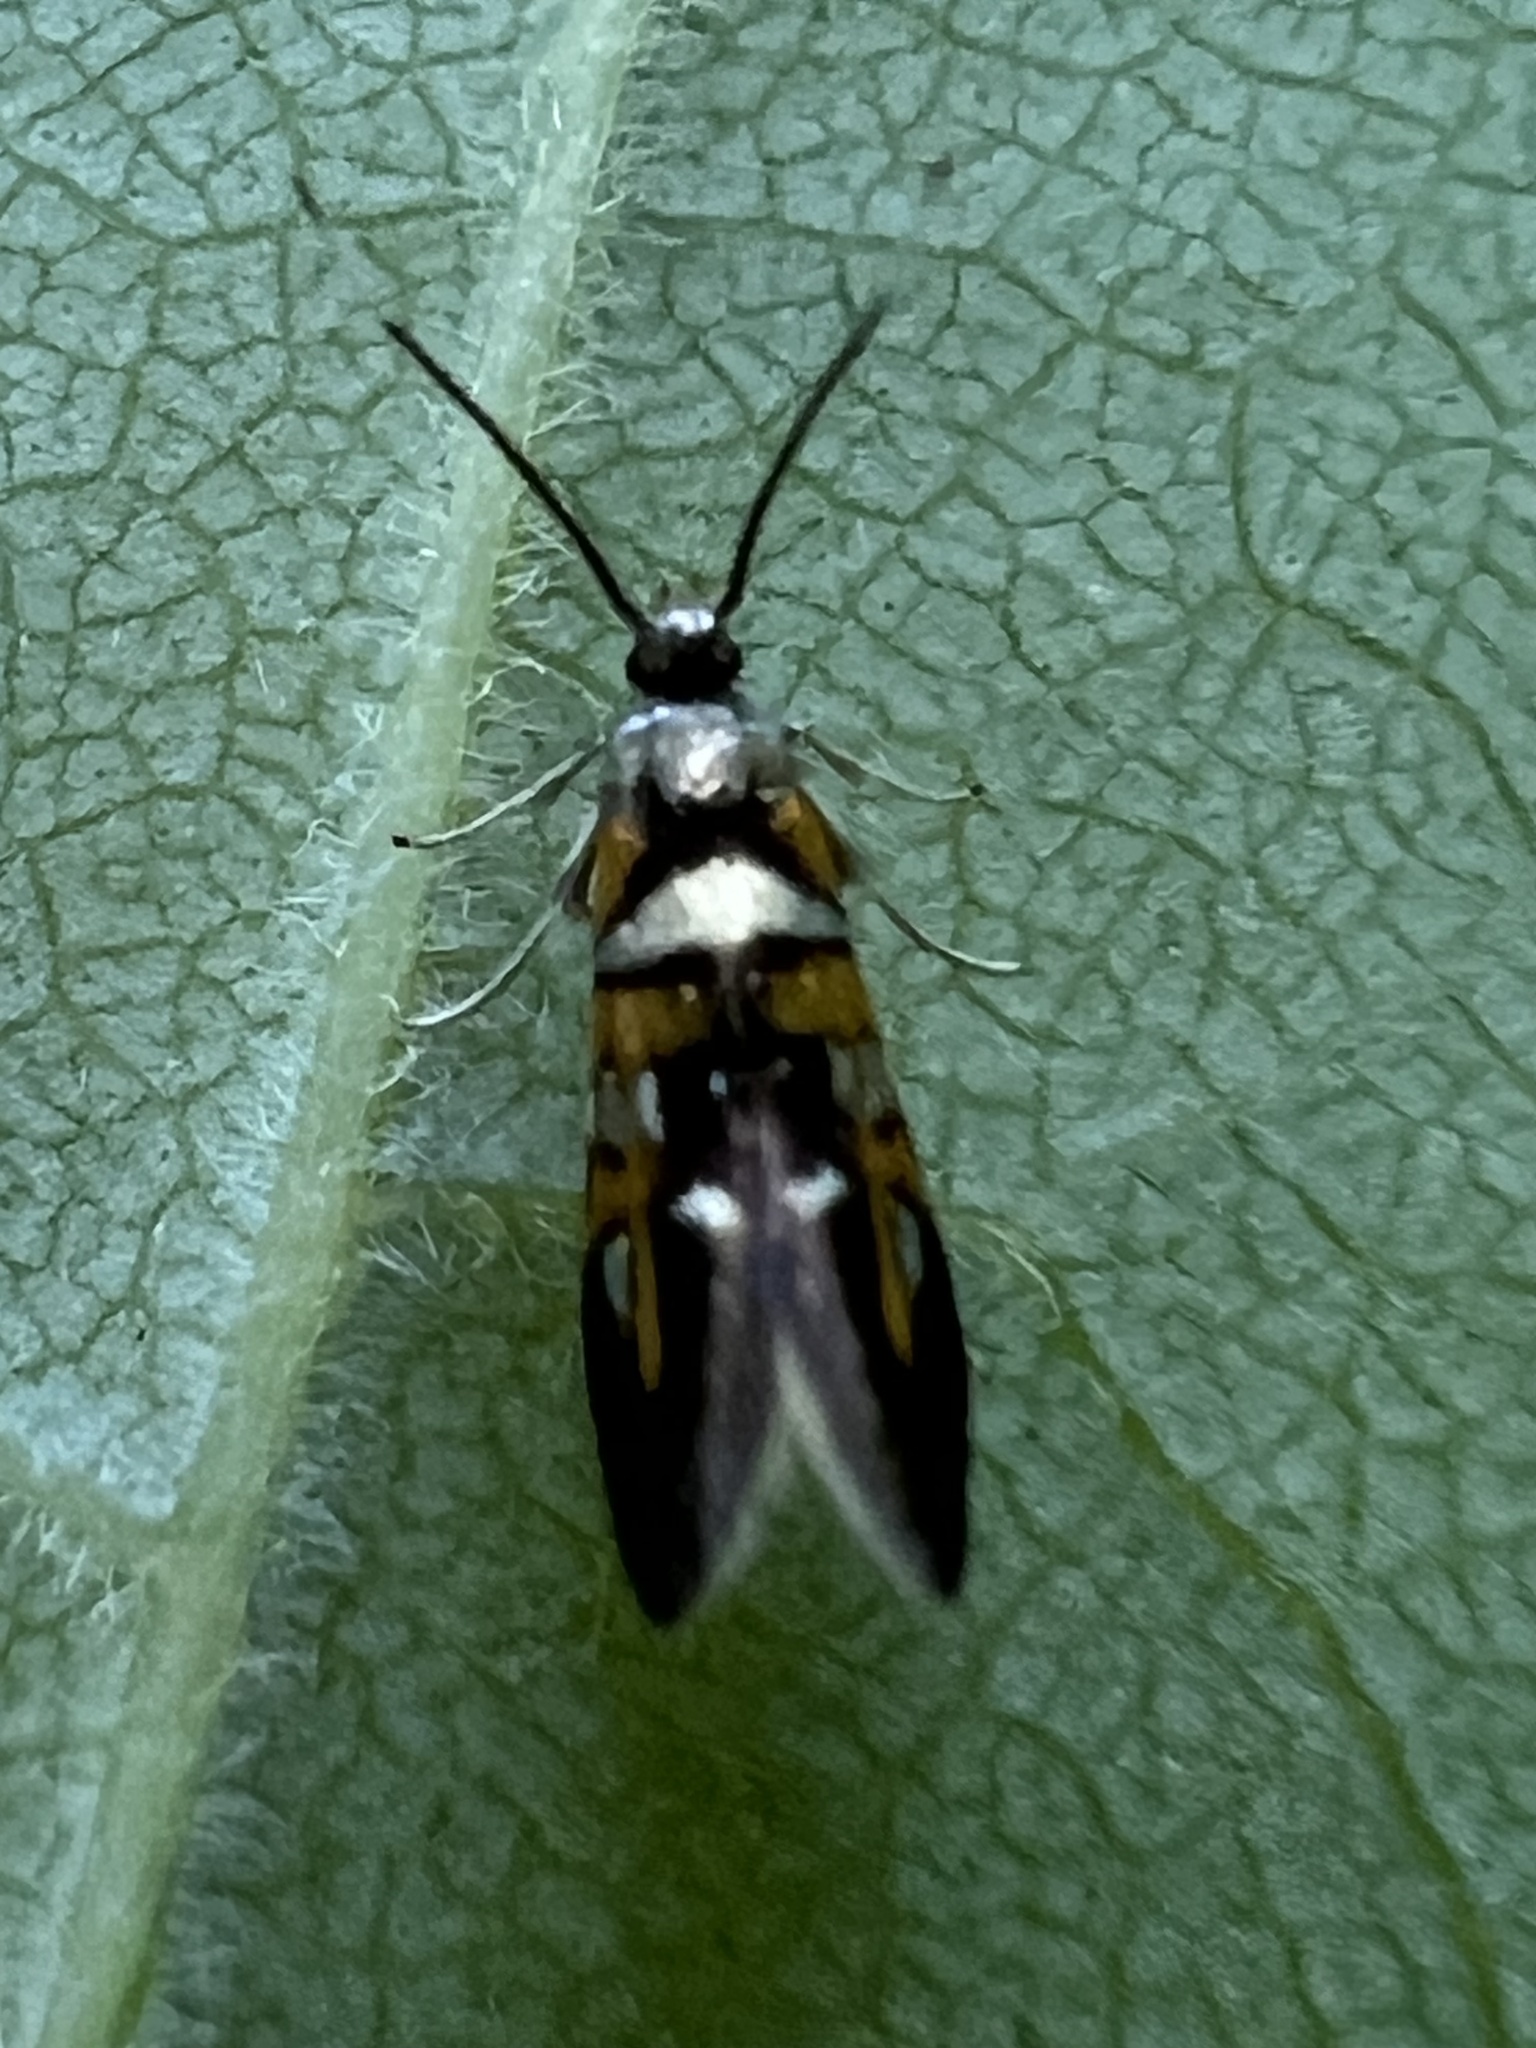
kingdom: Animalia
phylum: Arthropoda
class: Insecta
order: Lepidoptera
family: Oecophoridae
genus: Fabiola
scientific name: Fabiola edithella
